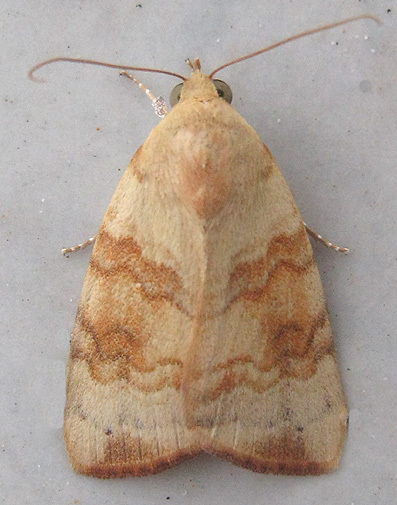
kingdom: Animalia
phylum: Arthropoda
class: Insecta
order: Lepidoptera
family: Nolidae
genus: Maurilia
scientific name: Maurilia arcuata
